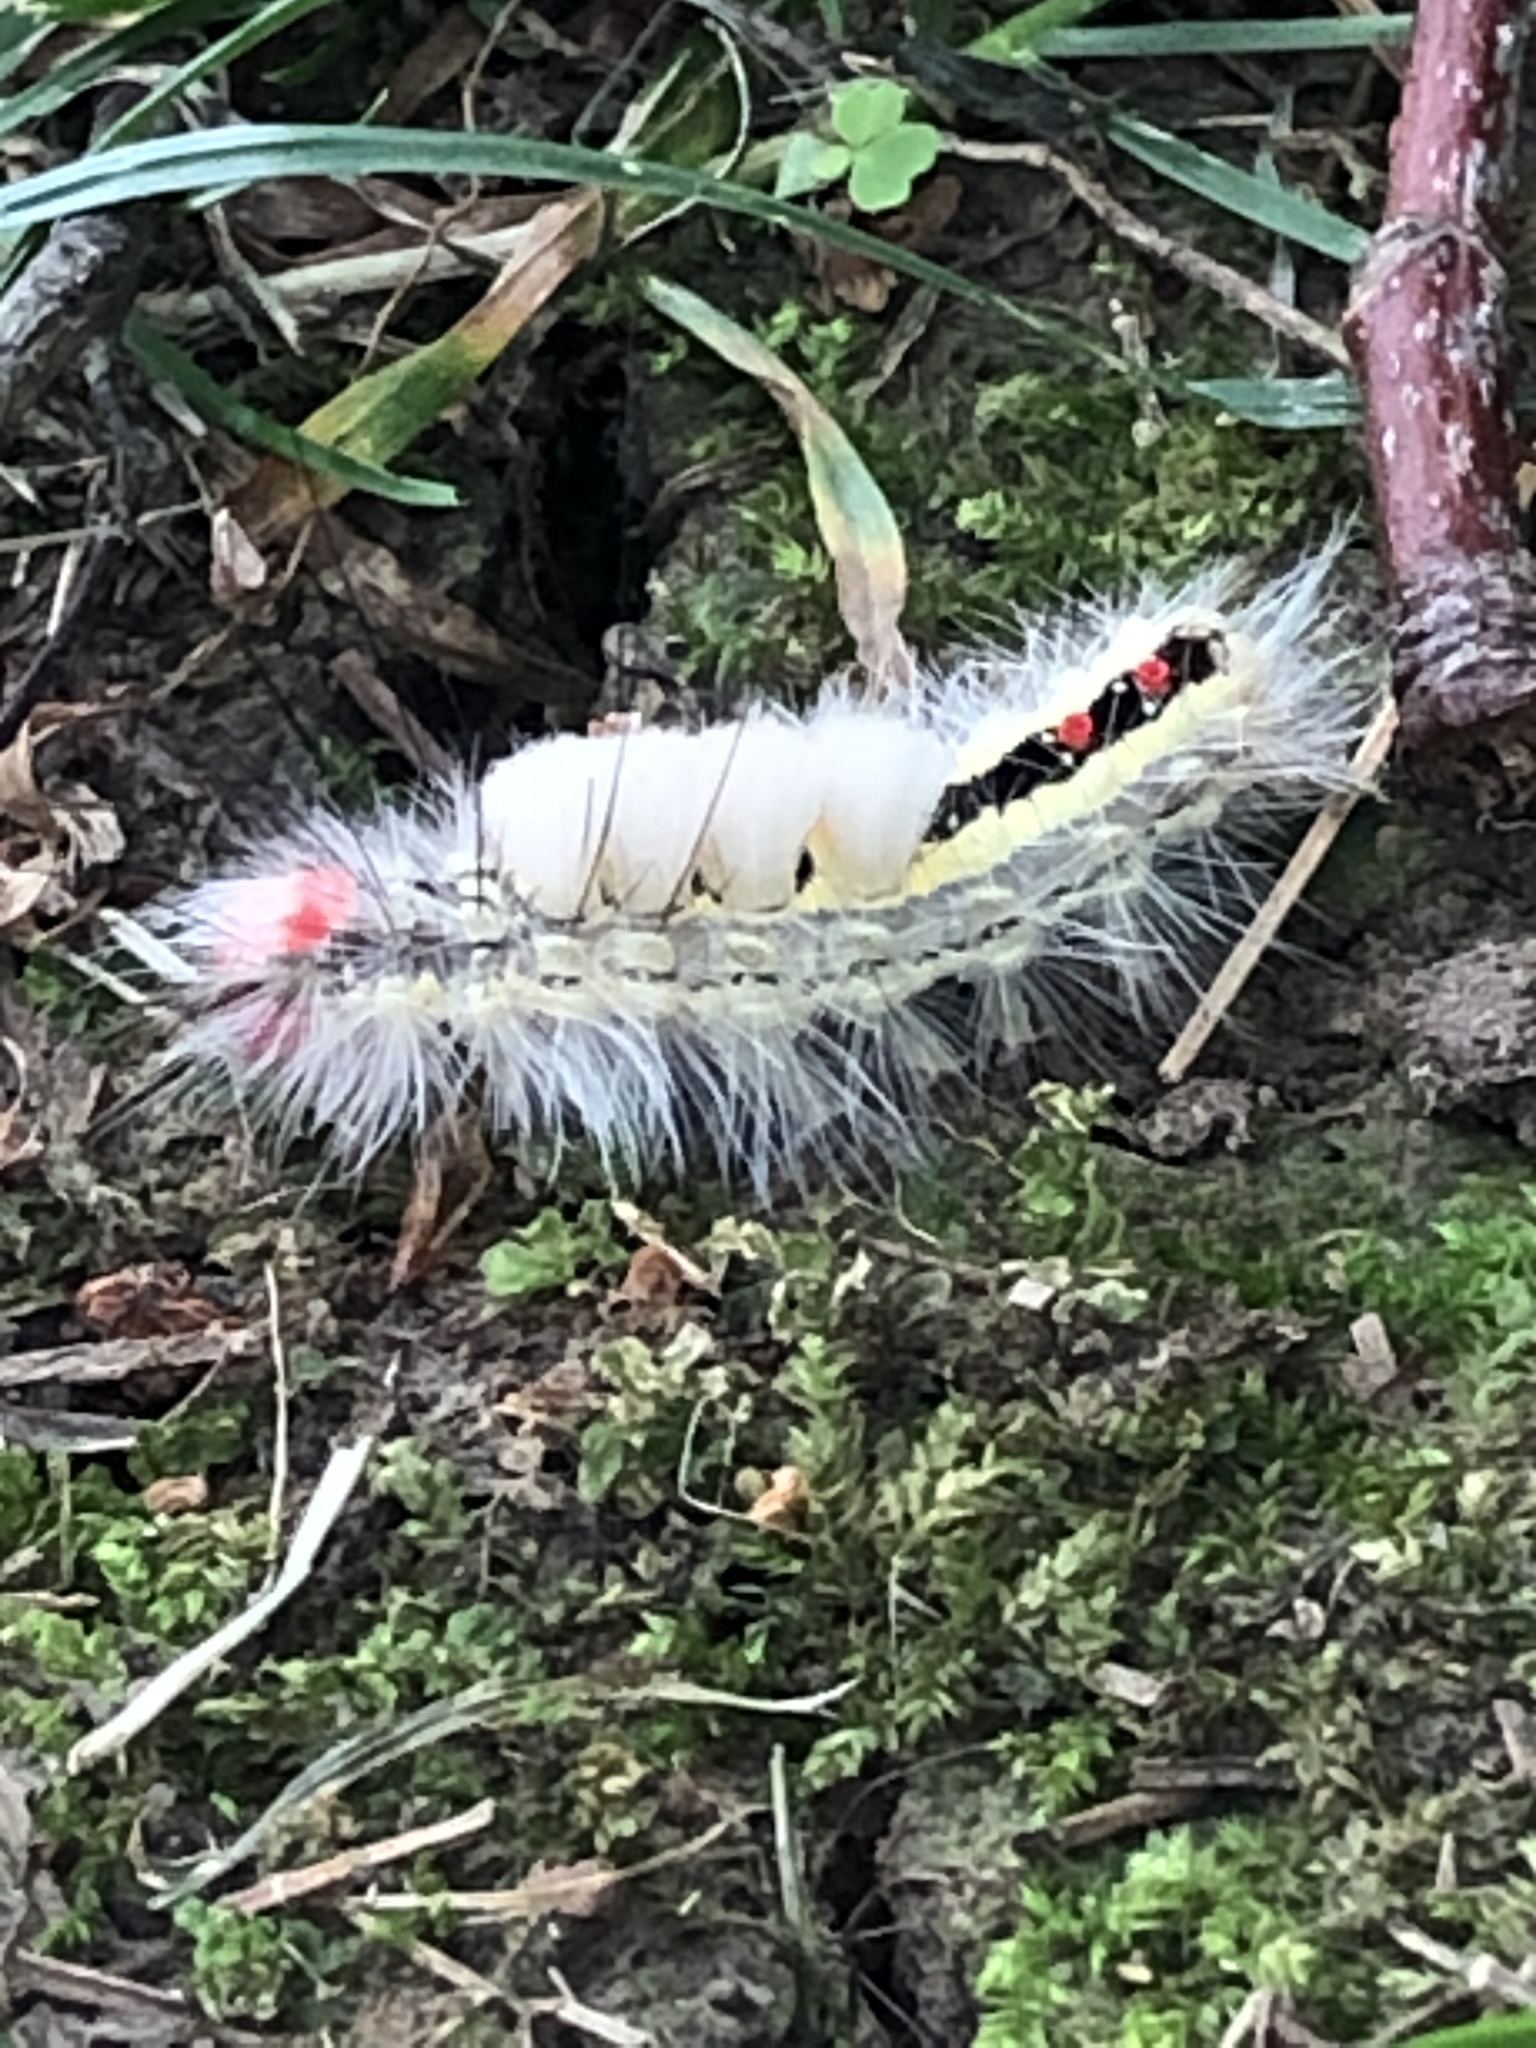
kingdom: Animalia
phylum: Arthropoda
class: Insecta
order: Lepidoptera
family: Erebidae
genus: Orgyia
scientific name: Orgyia leucostigma
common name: White-marked tussock moth
